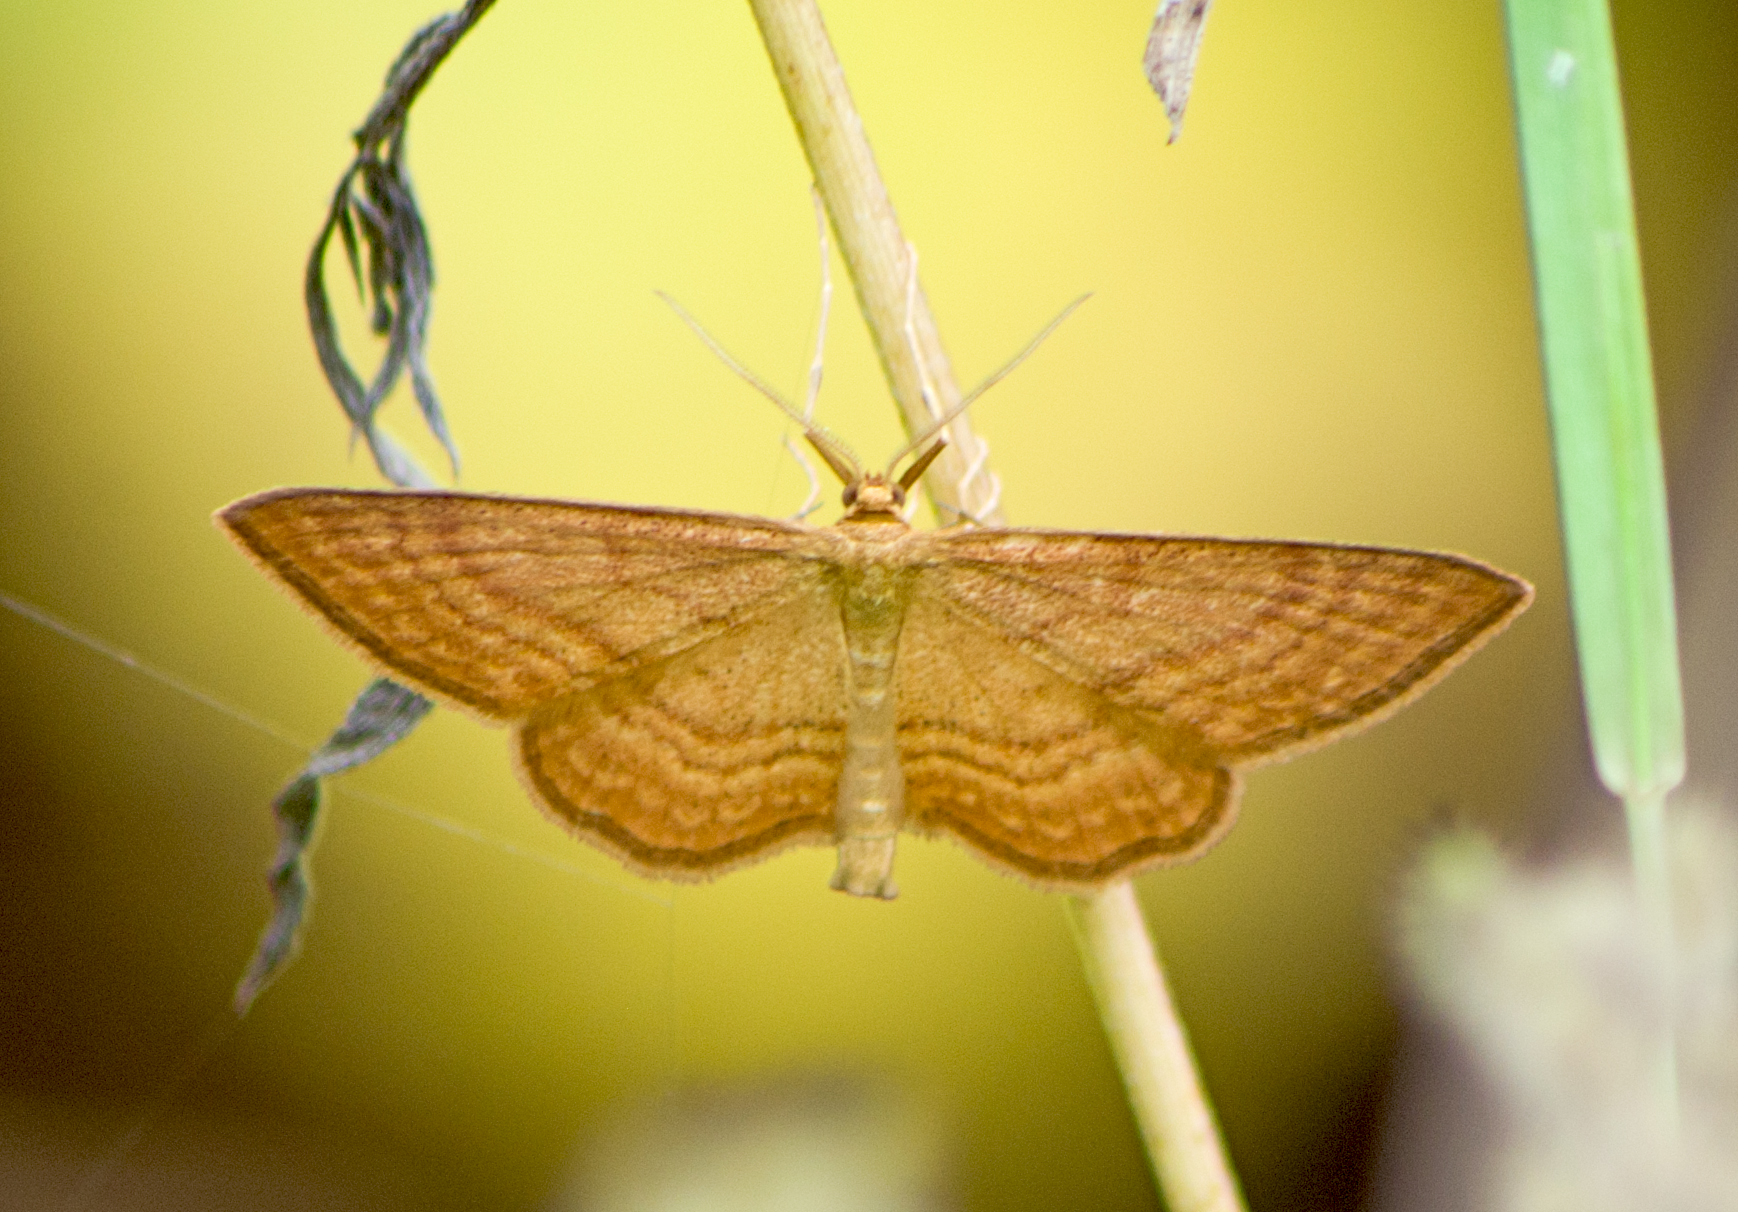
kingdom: Animalia
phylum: Arthropoda
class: Insecta
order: Lepidoptera
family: Geometridae
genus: Idaea
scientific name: Idaea ochrata
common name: Bright wave
